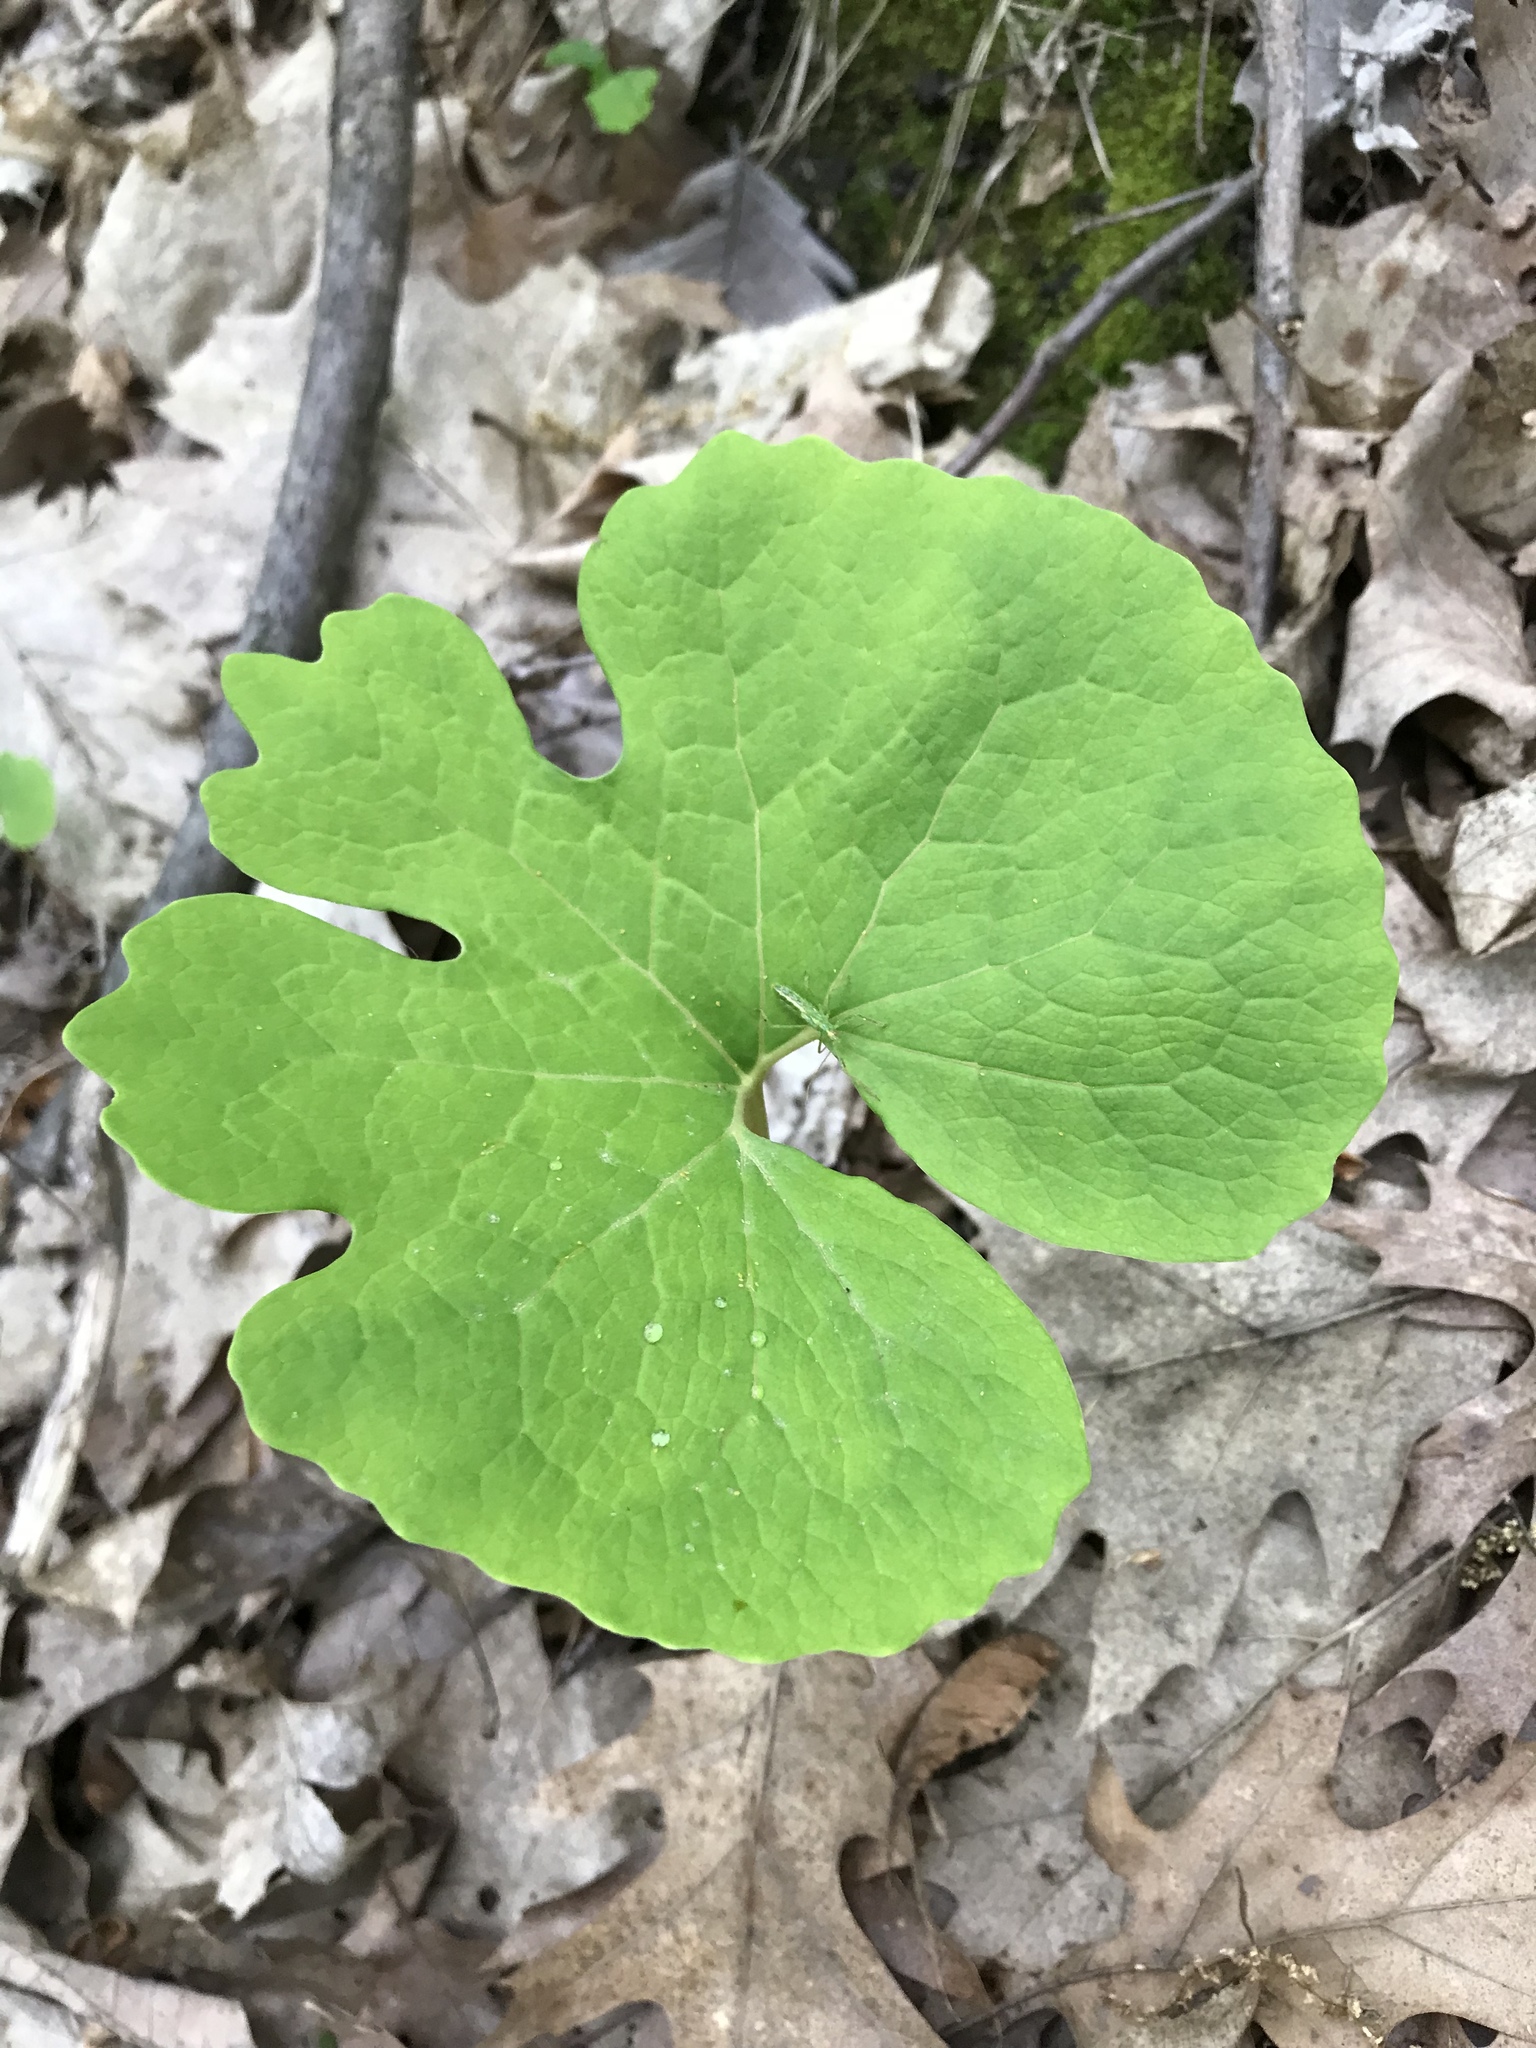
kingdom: Plantae
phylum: Tracheophyta
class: Magnoliopsida
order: Ranunculales
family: Papaveraceae
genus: Sanguinaria
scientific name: Sanguinaria canadensis
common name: Bloodroot
